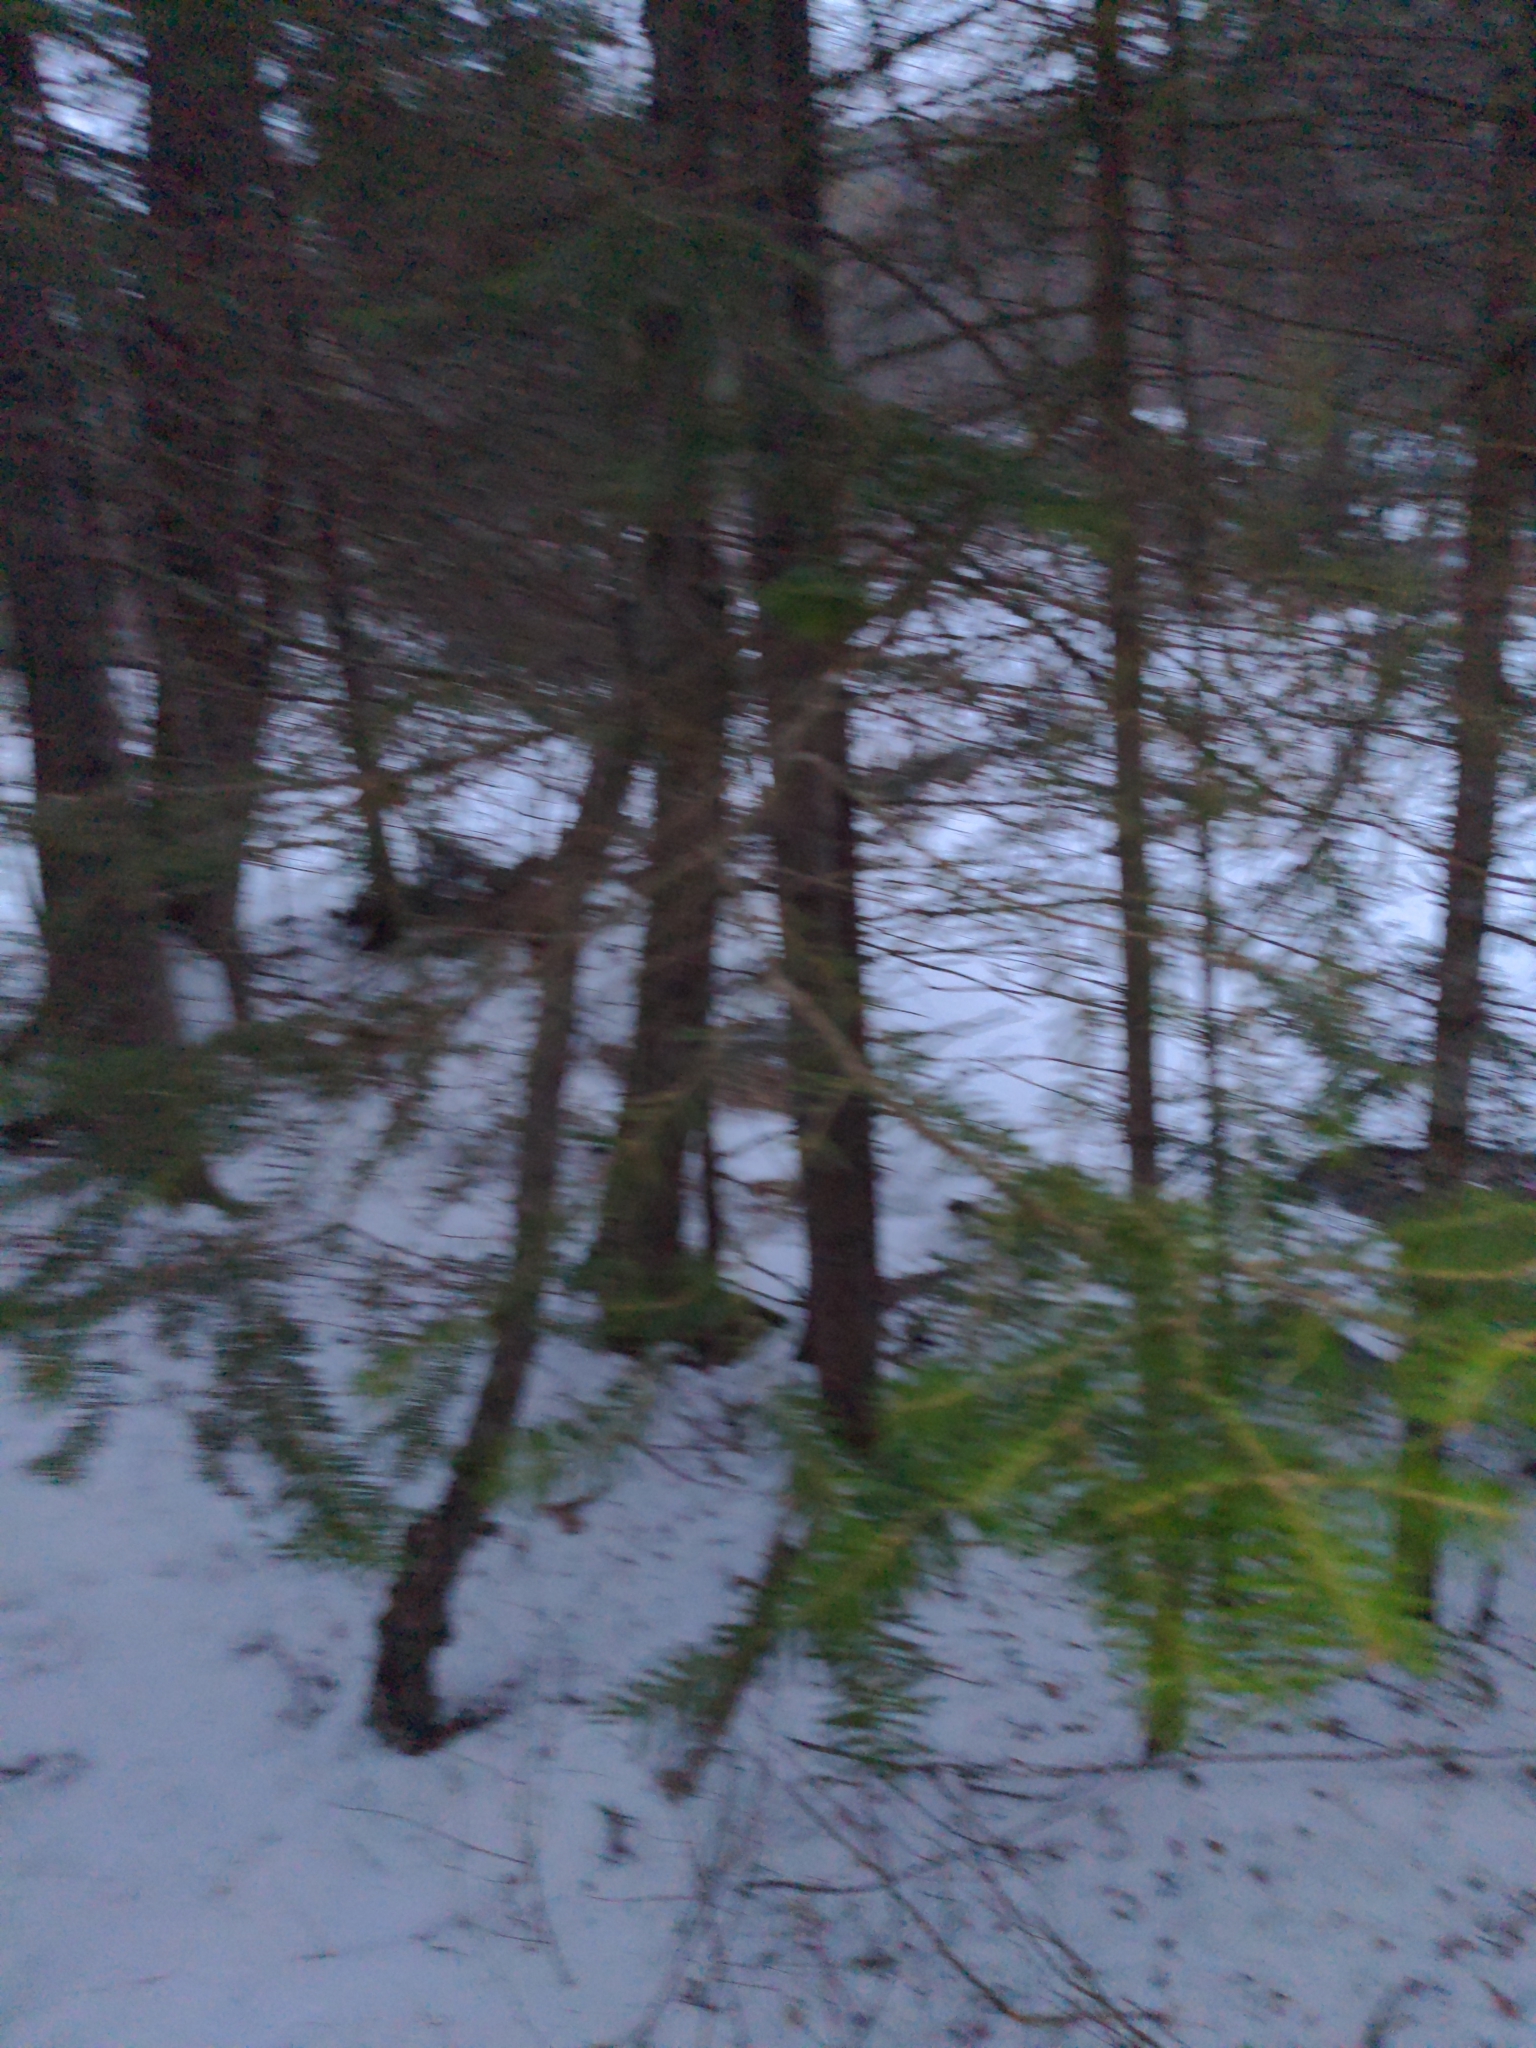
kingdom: Plantae
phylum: Tracheophyta
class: Pinopsida
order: Pinales
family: Pinaceae
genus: Abies
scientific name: Abies balsamea
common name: Balsam fir
